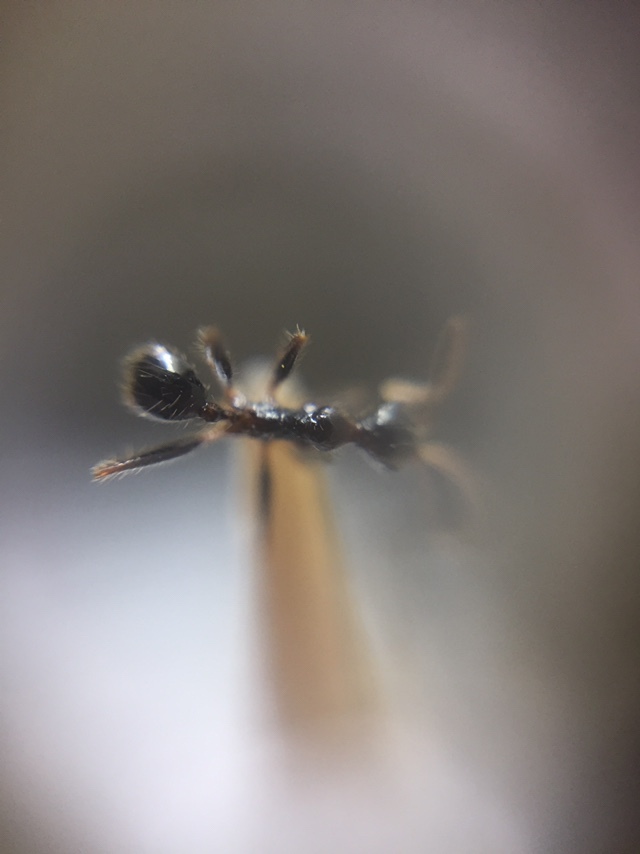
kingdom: Animalia
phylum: Arthropoda
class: Insecta
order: Hymenoptera
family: Formicidae
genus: Pheidole
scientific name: Pheidole latinoda
